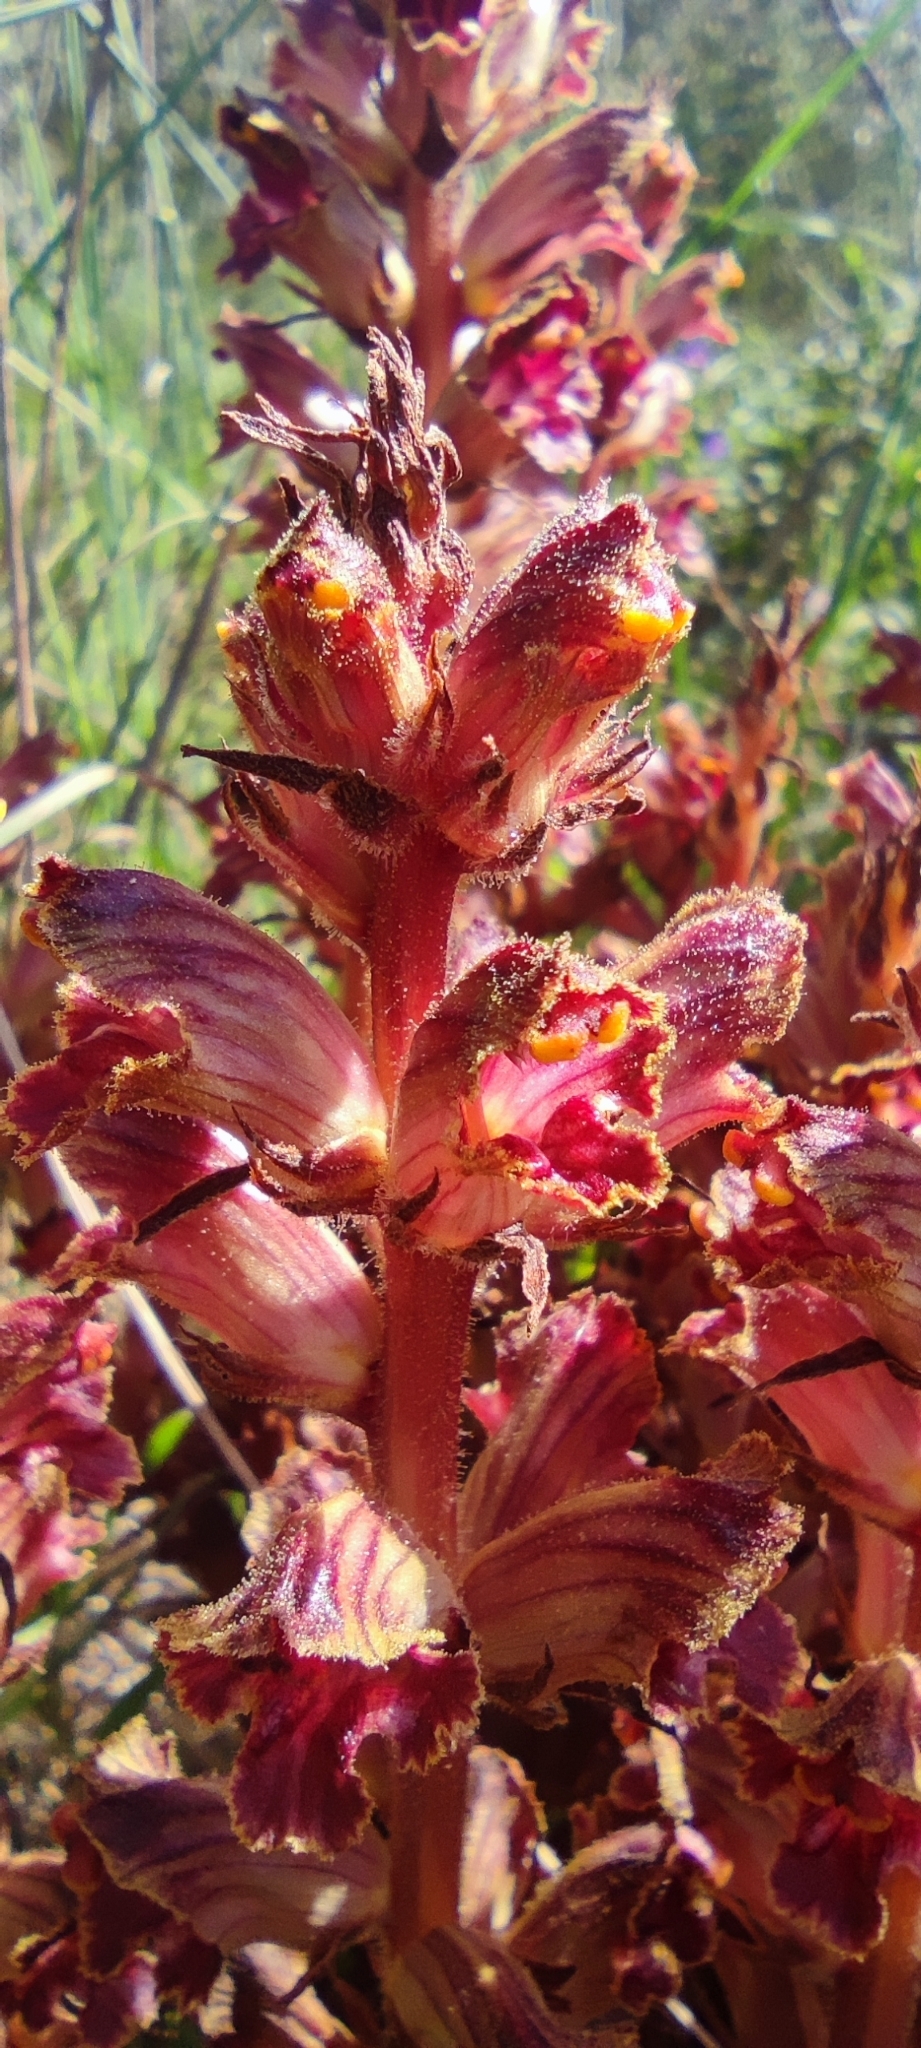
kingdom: Plantae
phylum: Tracheophyta
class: Magnoliopsida
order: Lamiales
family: Orobanchaceae
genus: Orobanche
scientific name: Orobanche gracilis
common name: Slender broomrape
